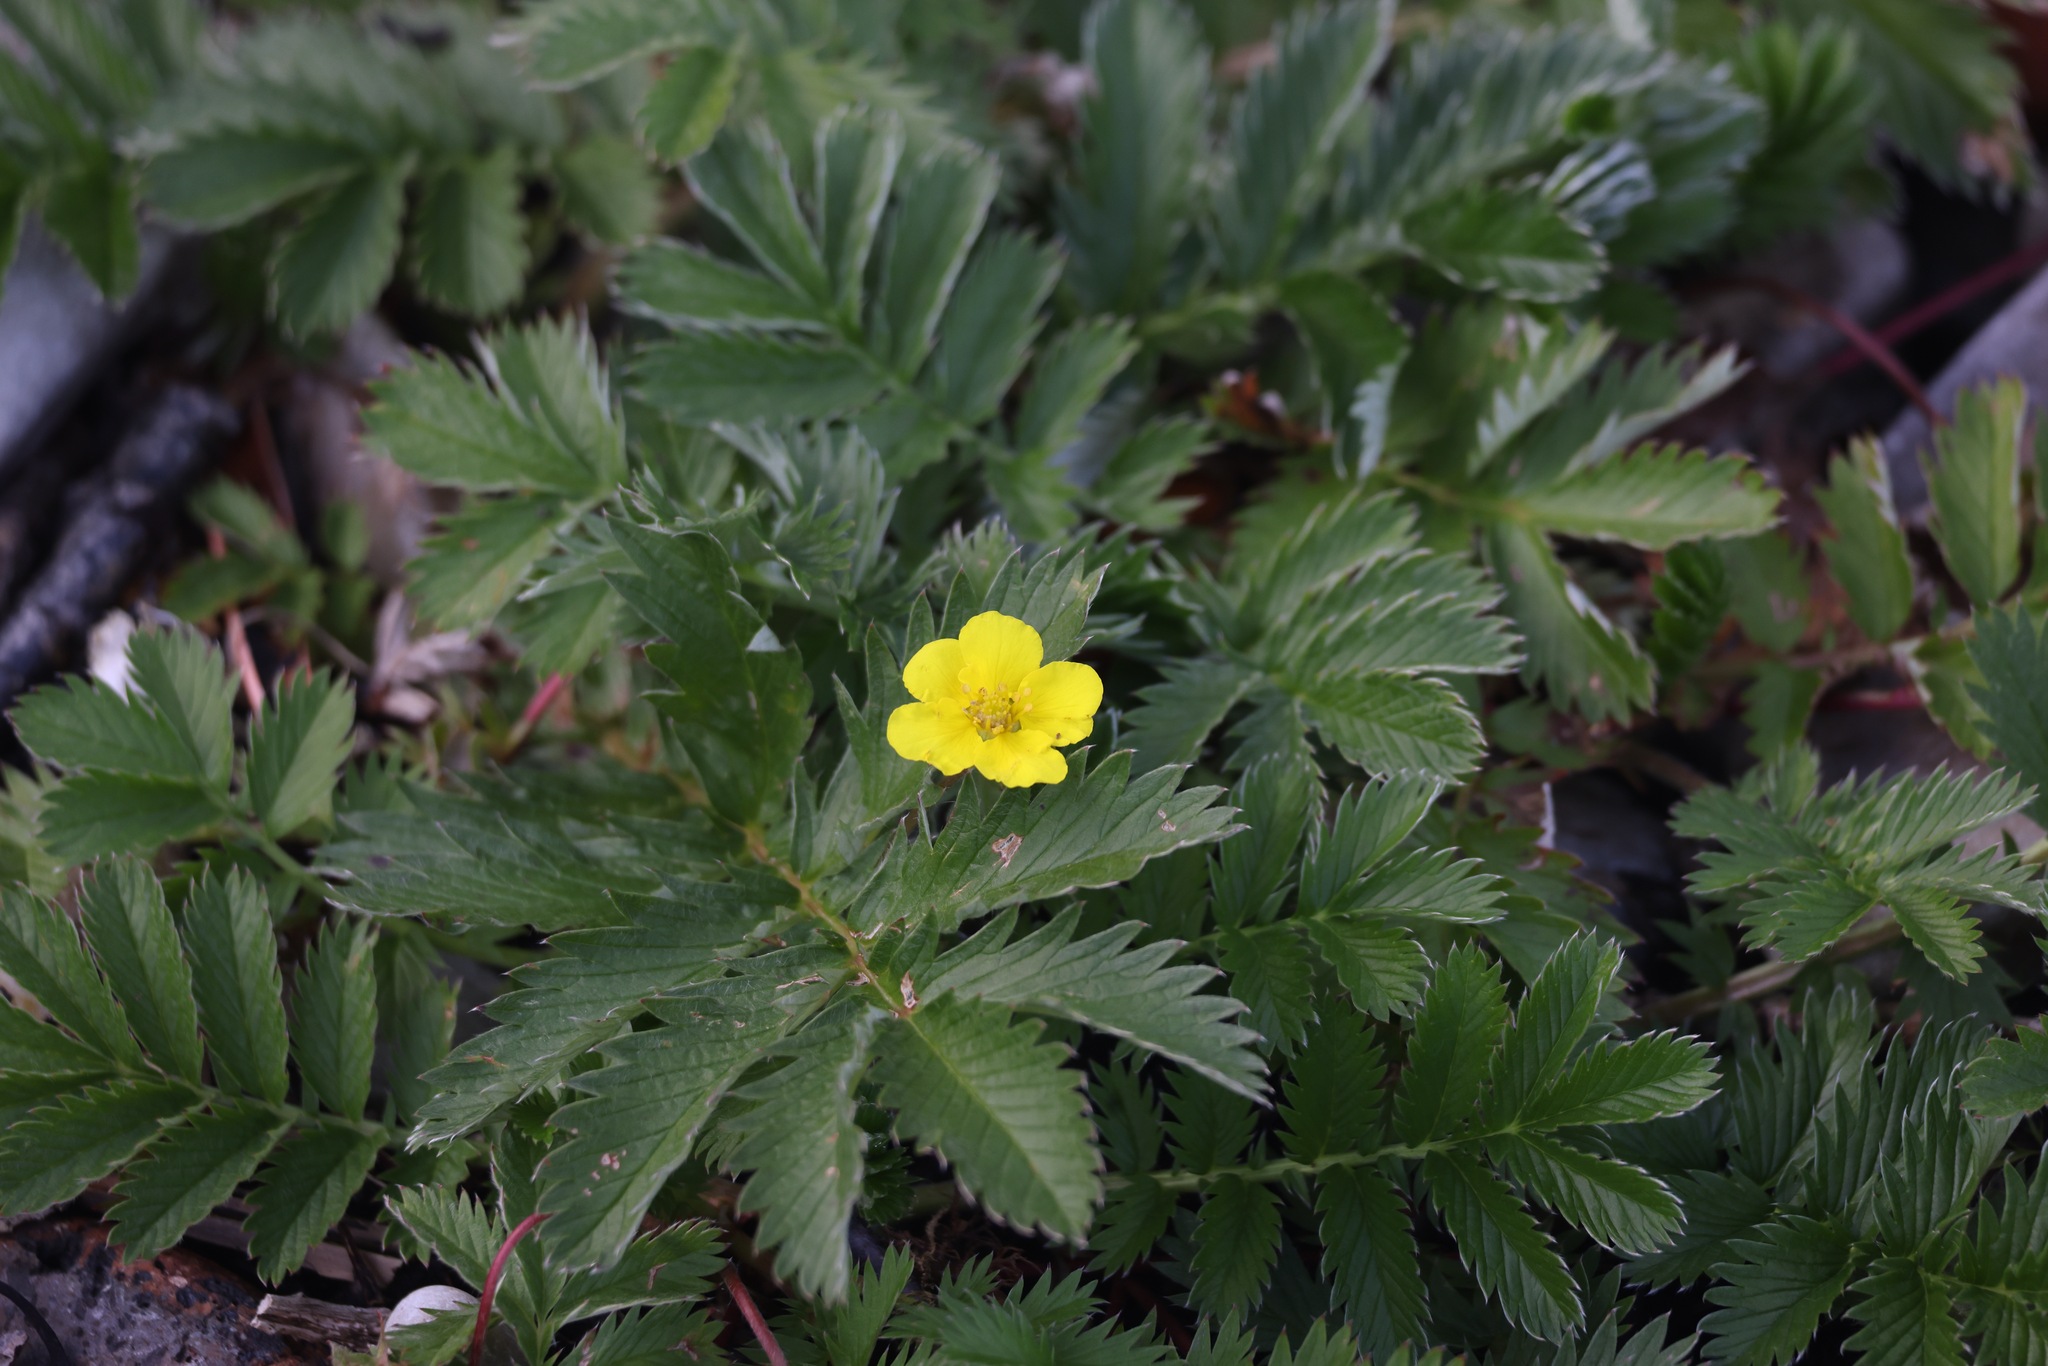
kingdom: Plantae
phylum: Tracheophyta
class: Magnoliopsida
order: Rosales
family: Rosaceae
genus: Argentina
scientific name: Argentina anserina
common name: Common silverweed
